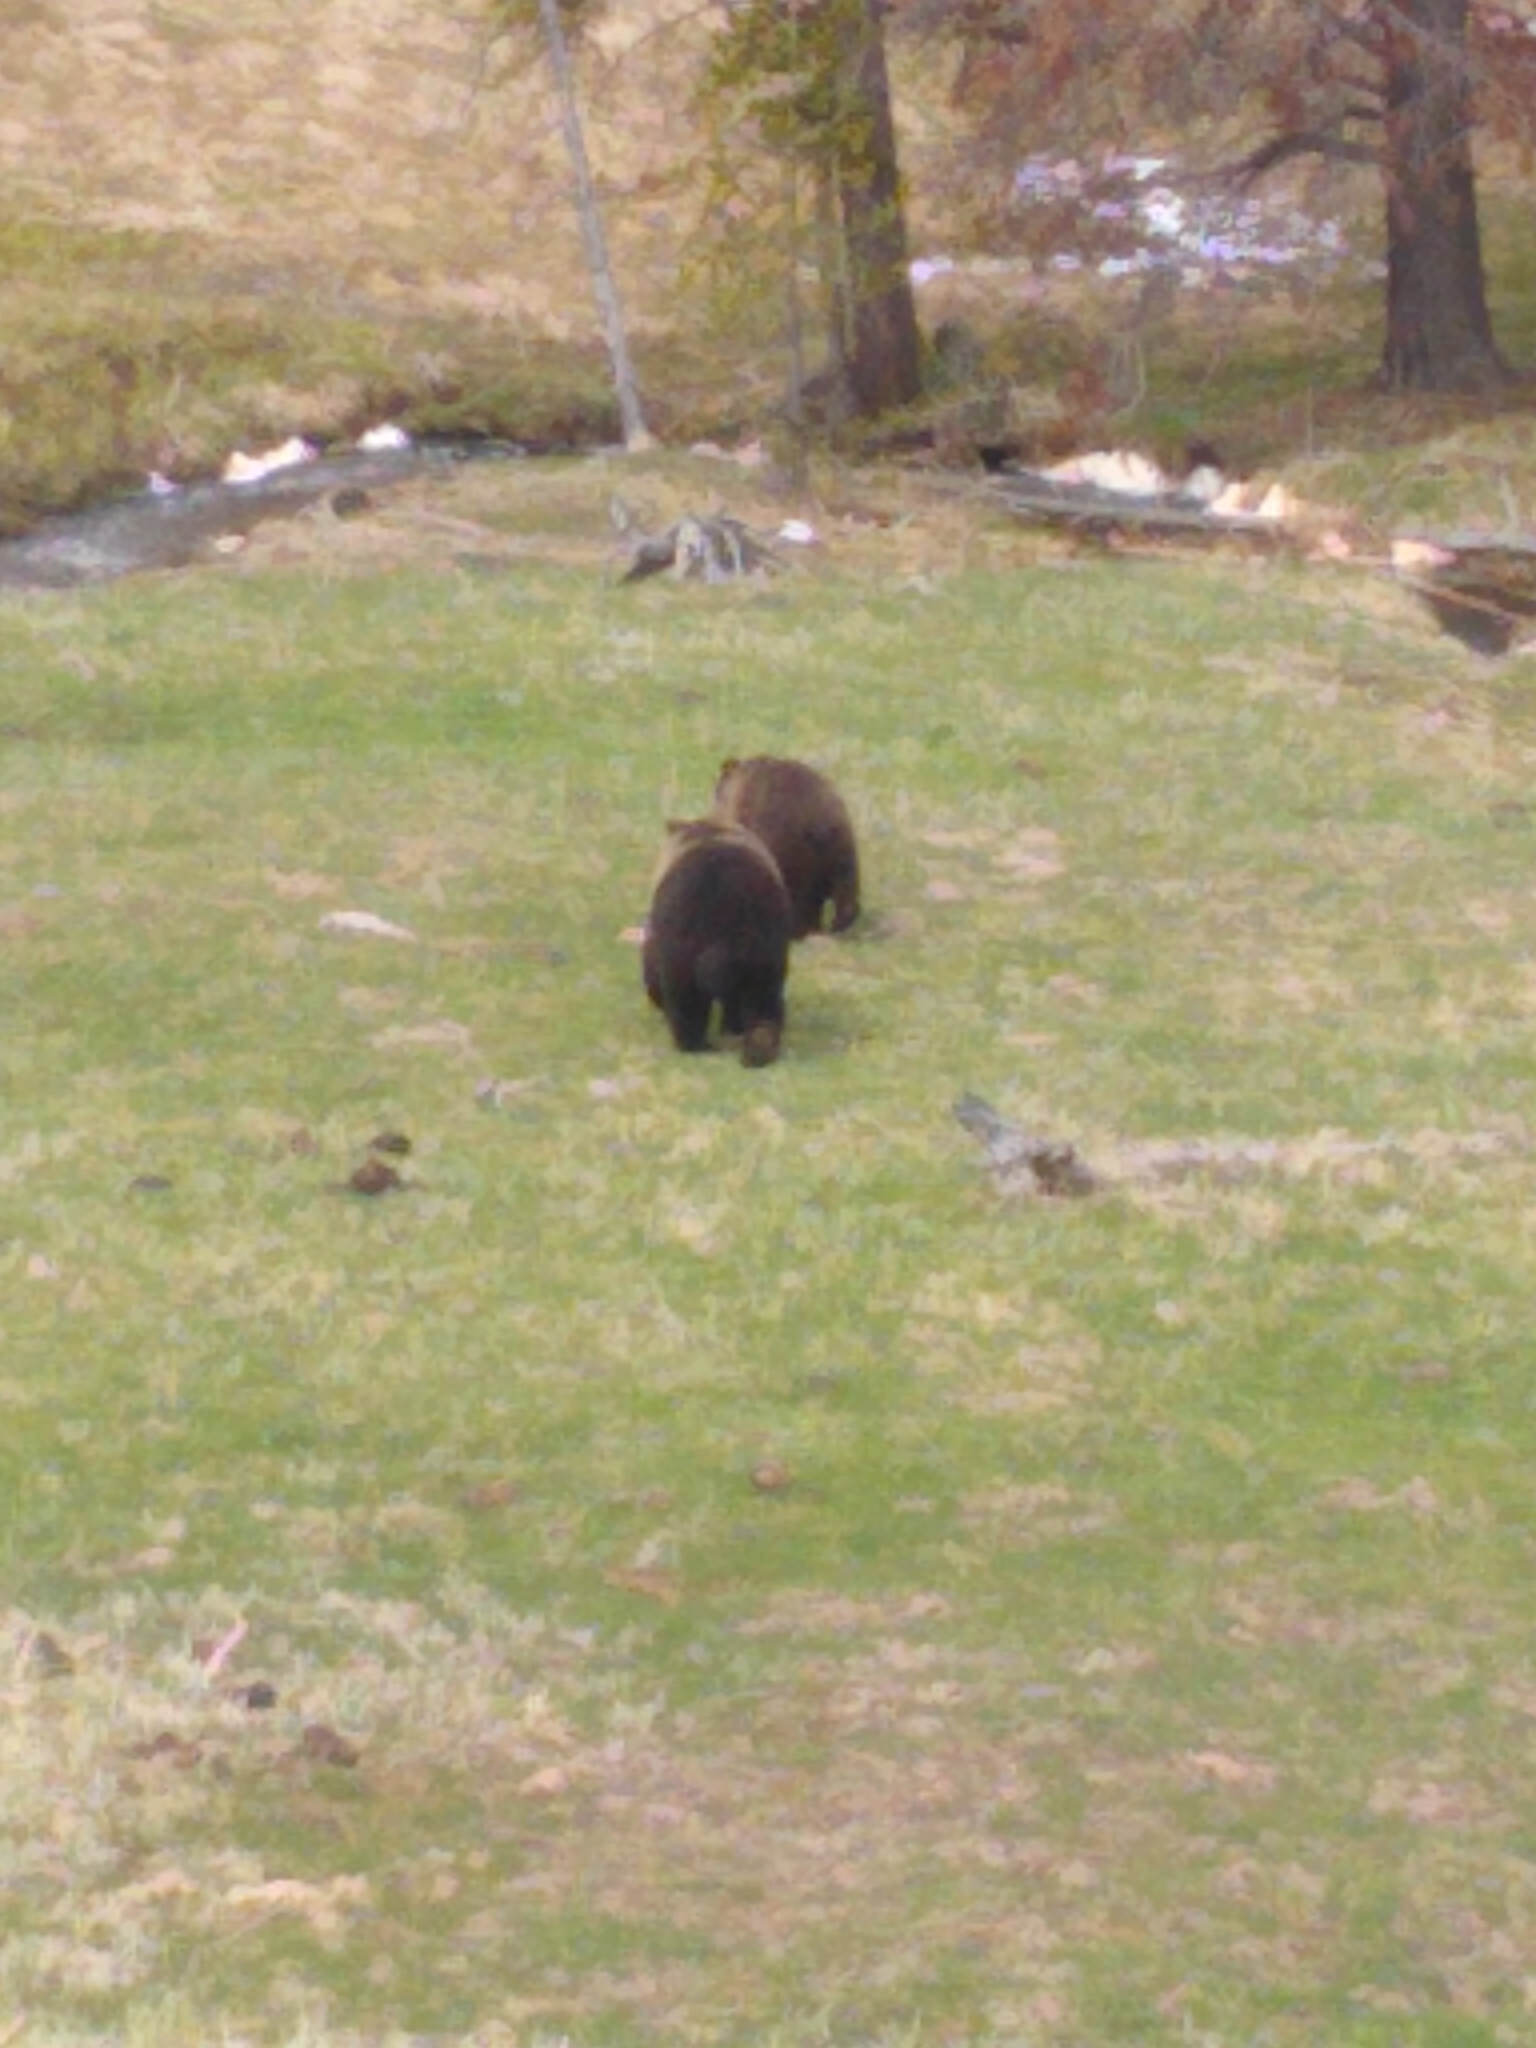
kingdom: Animalia
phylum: Chordata
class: Mammalia
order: Carnivora
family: Ursidae
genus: Ursus
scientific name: Ursus arctos
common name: Brown bear
